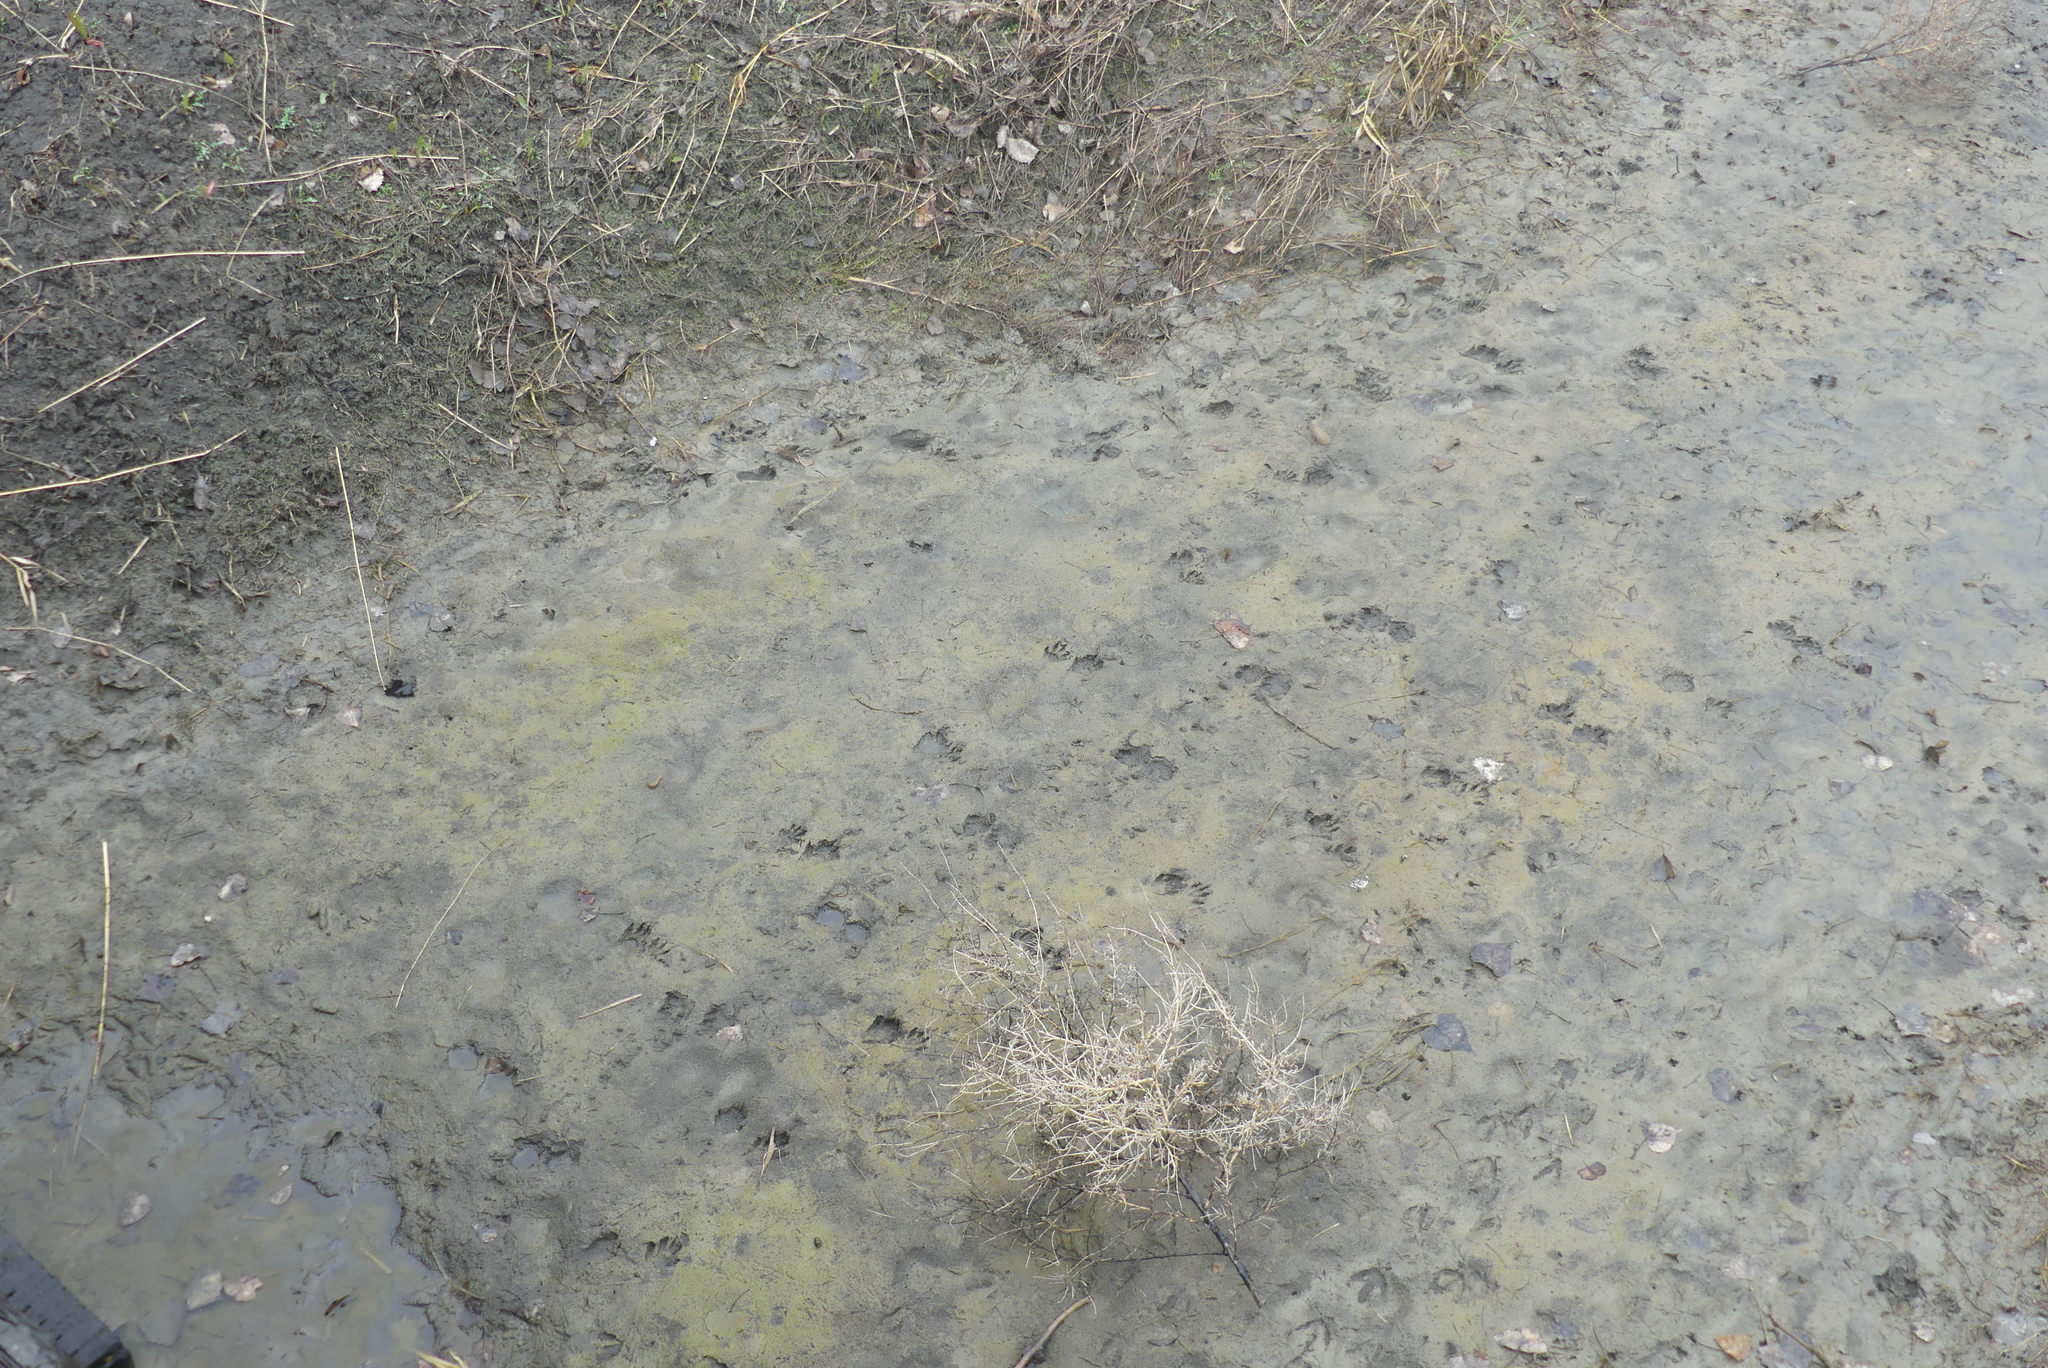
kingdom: Animalia
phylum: Chordata
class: Mammalia
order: Carnivora
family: Procyonidae
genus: Procyon
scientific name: Procyon lotor
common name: Raccoon
